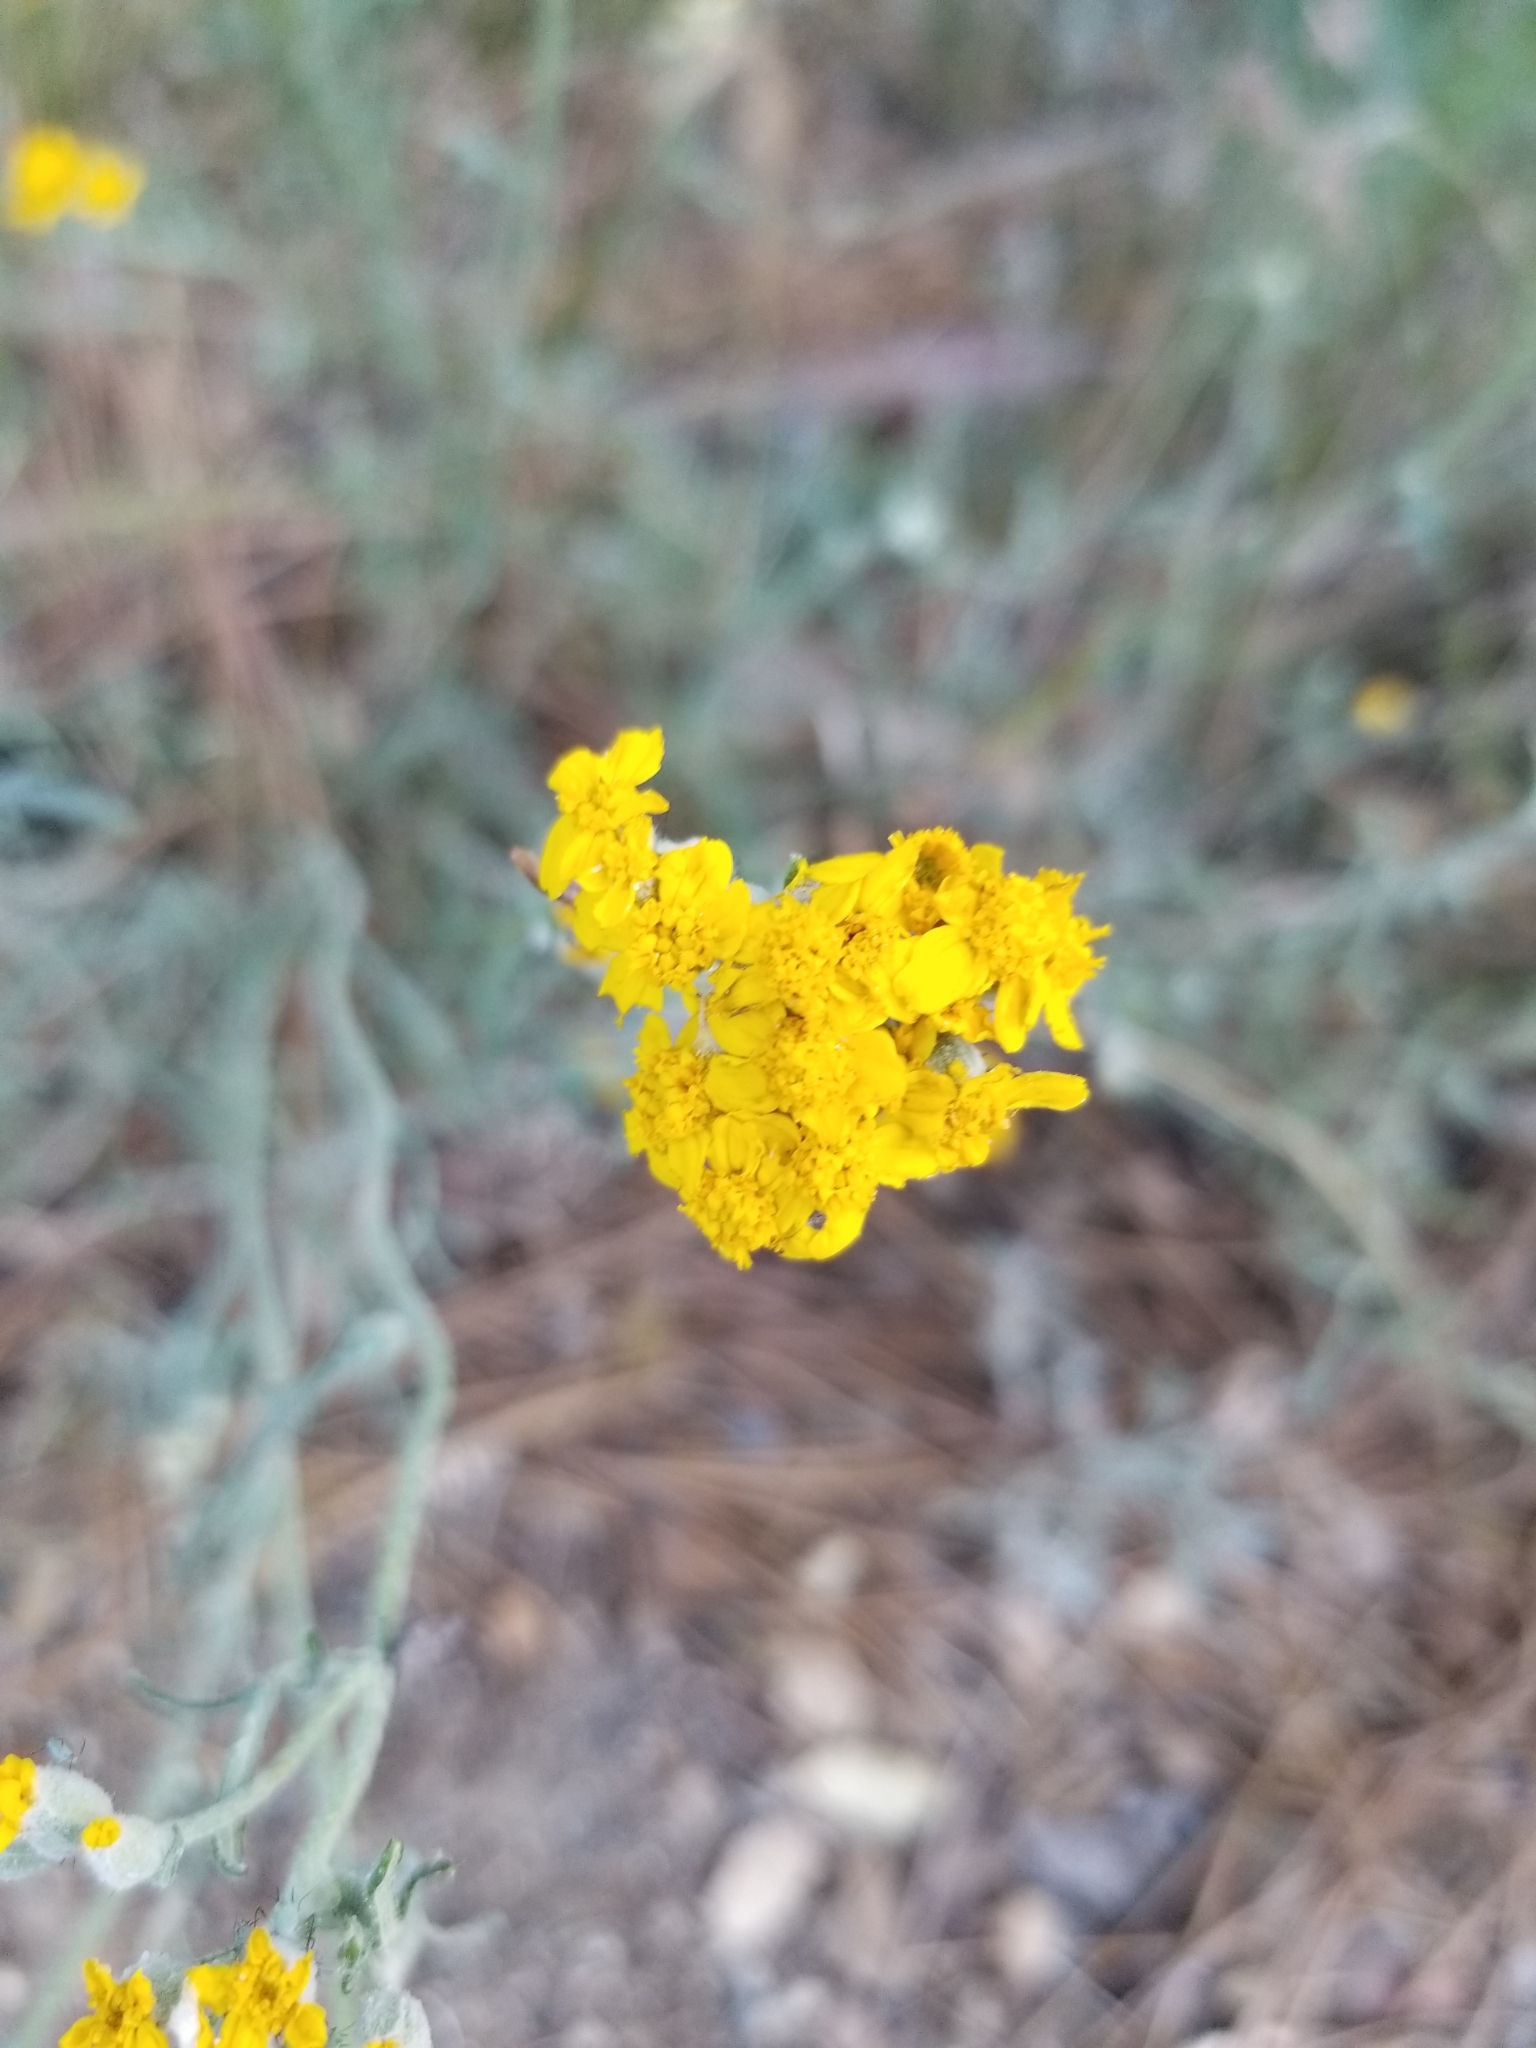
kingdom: Plantae
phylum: Tracheophyta
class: Magnoliopsida
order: Asterales
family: Asteraceae
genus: Eriophyllum
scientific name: Eriophyllum confertiflorum
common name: Golden-yarrow
